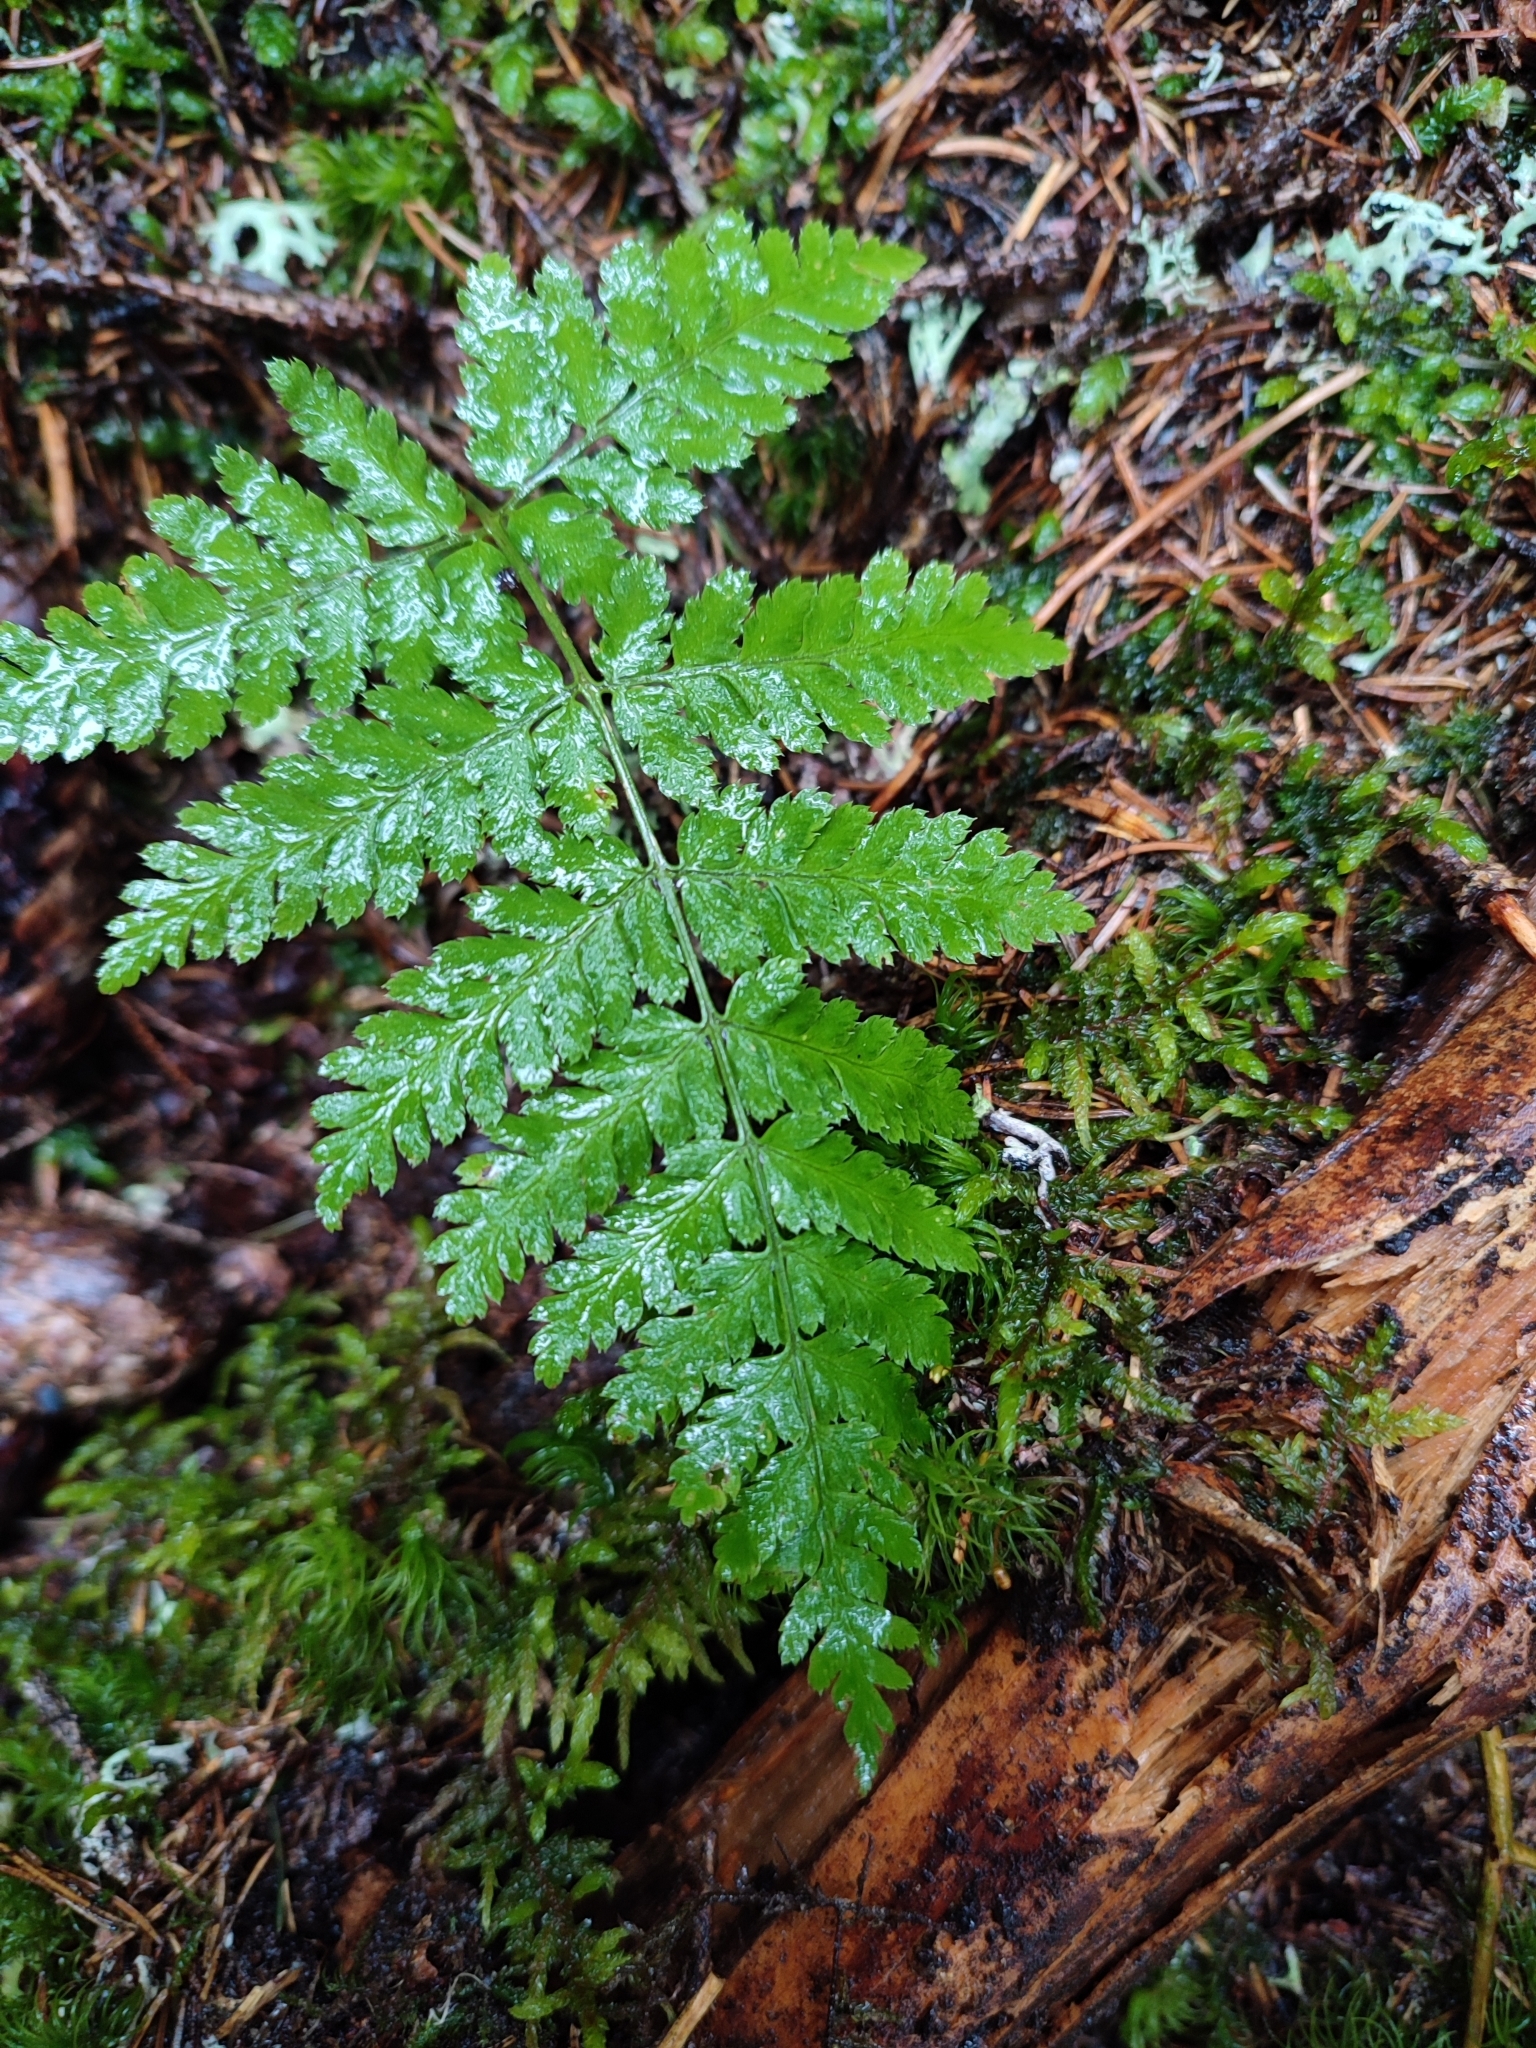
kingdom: Plantae
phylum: Tracheophyta
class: Polypodiopsida
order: Polypodiales
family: Dryopteridaceae
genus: Dryopteris
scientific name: Dryopteris carthusiana
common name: Narrow buckler-fern
